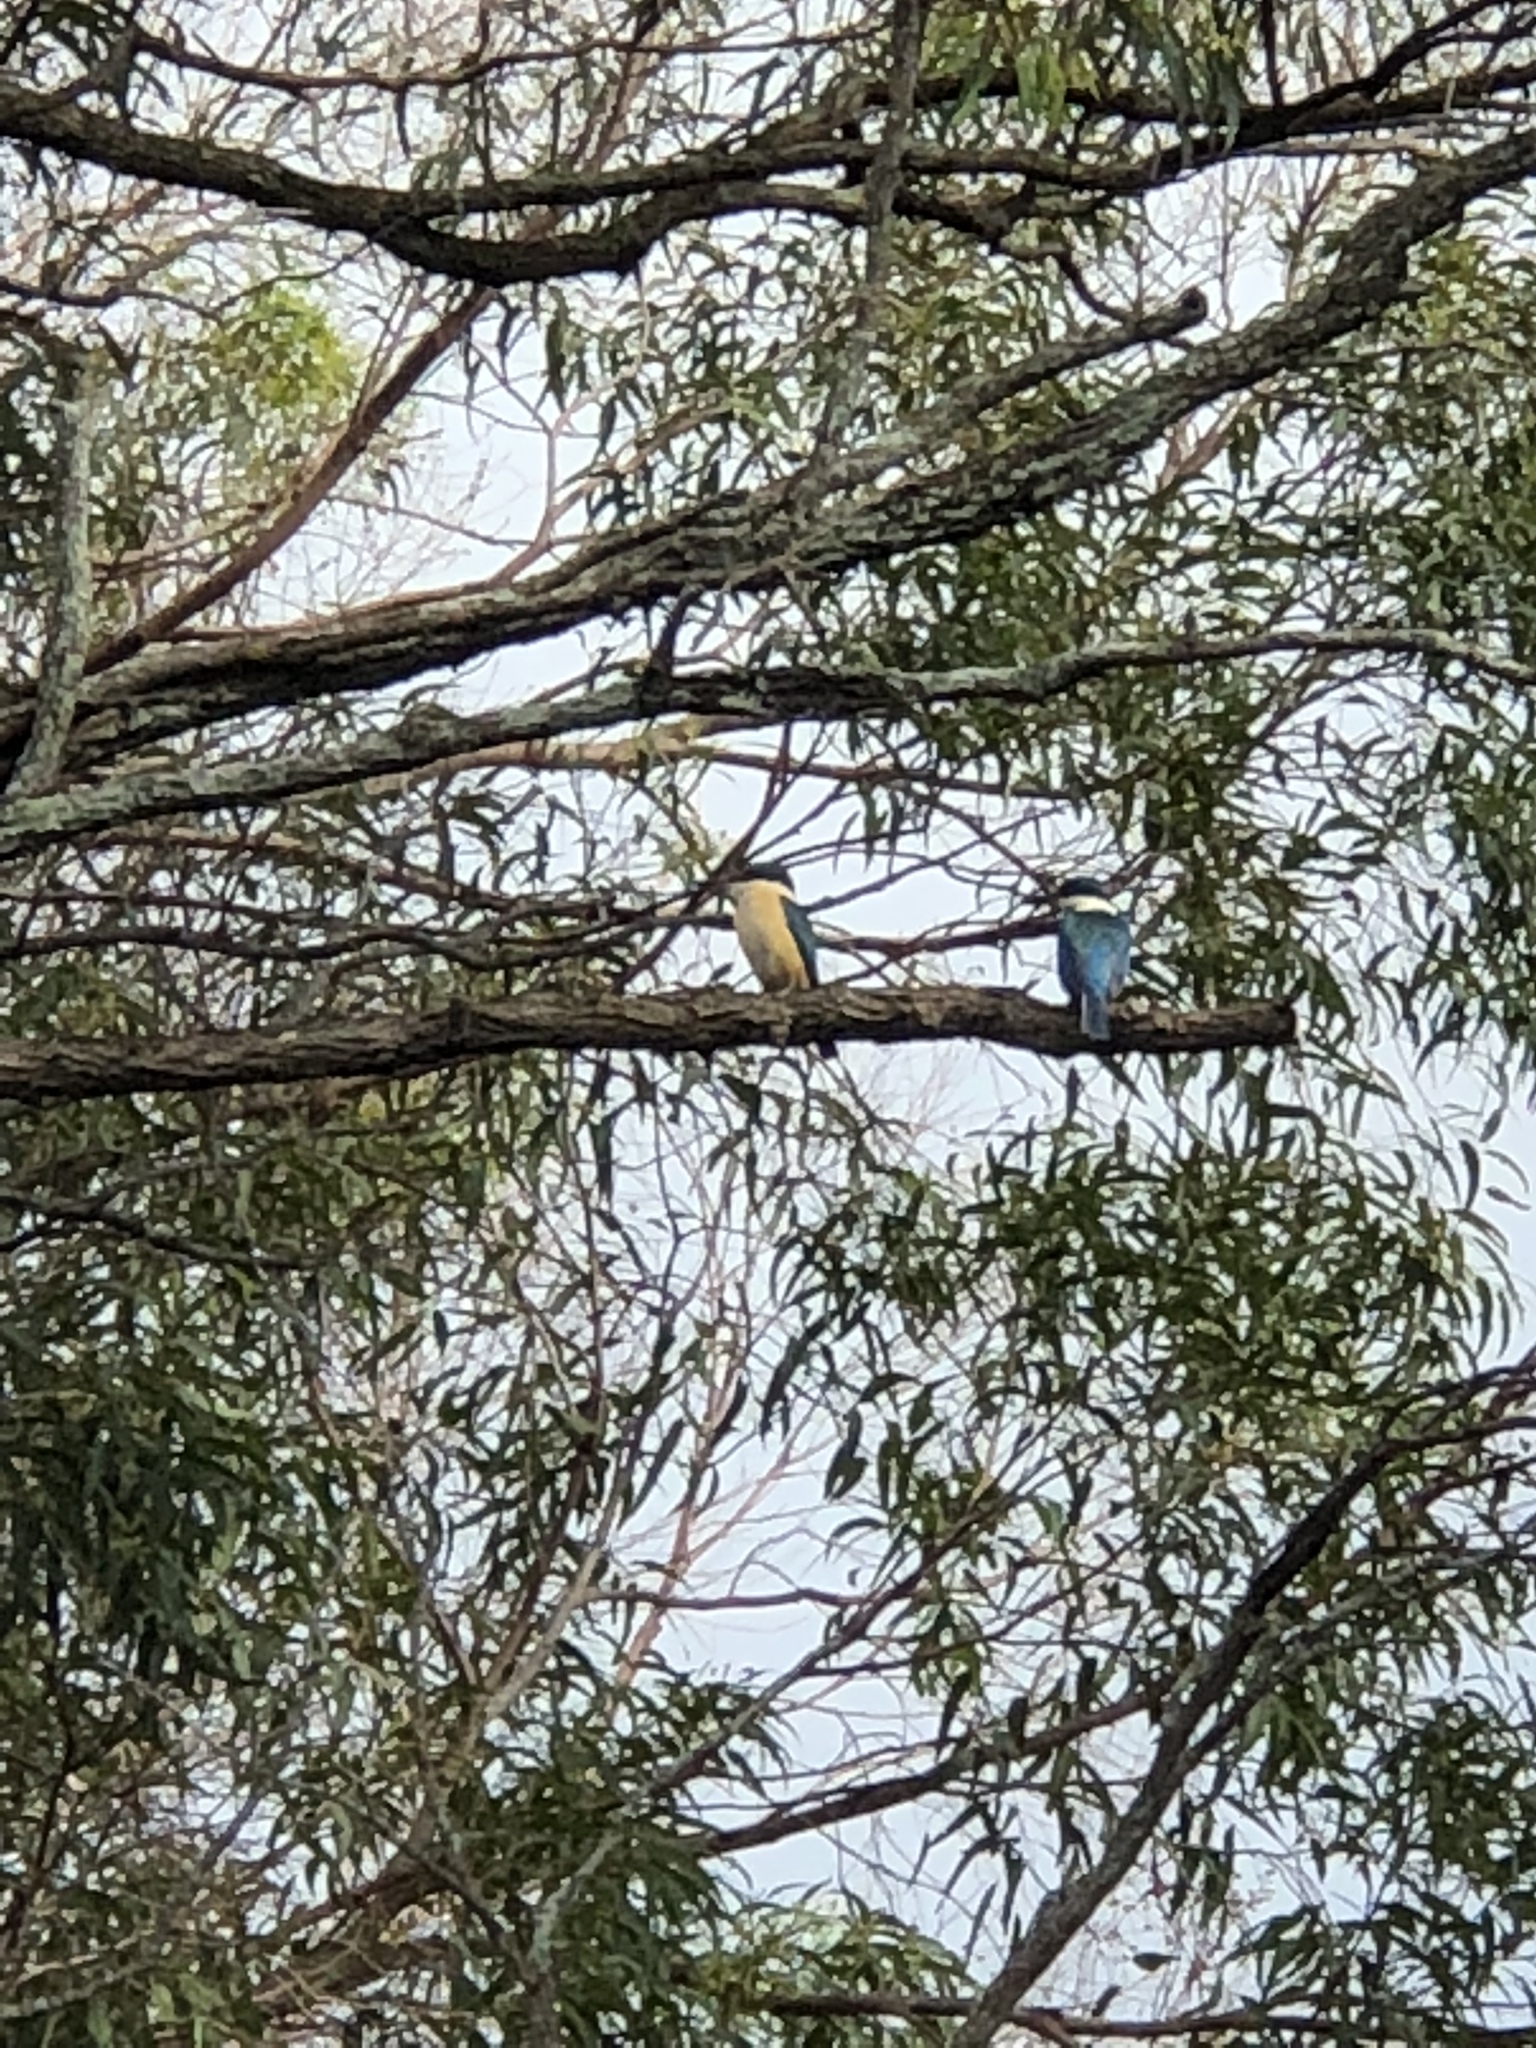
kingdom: Animalia
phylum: Chordata
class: Aves
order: Coraciiformes
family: Alcedinidae
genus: Todiramphus
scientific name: Todiramphus sanctus
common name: Sacred kingfisher
